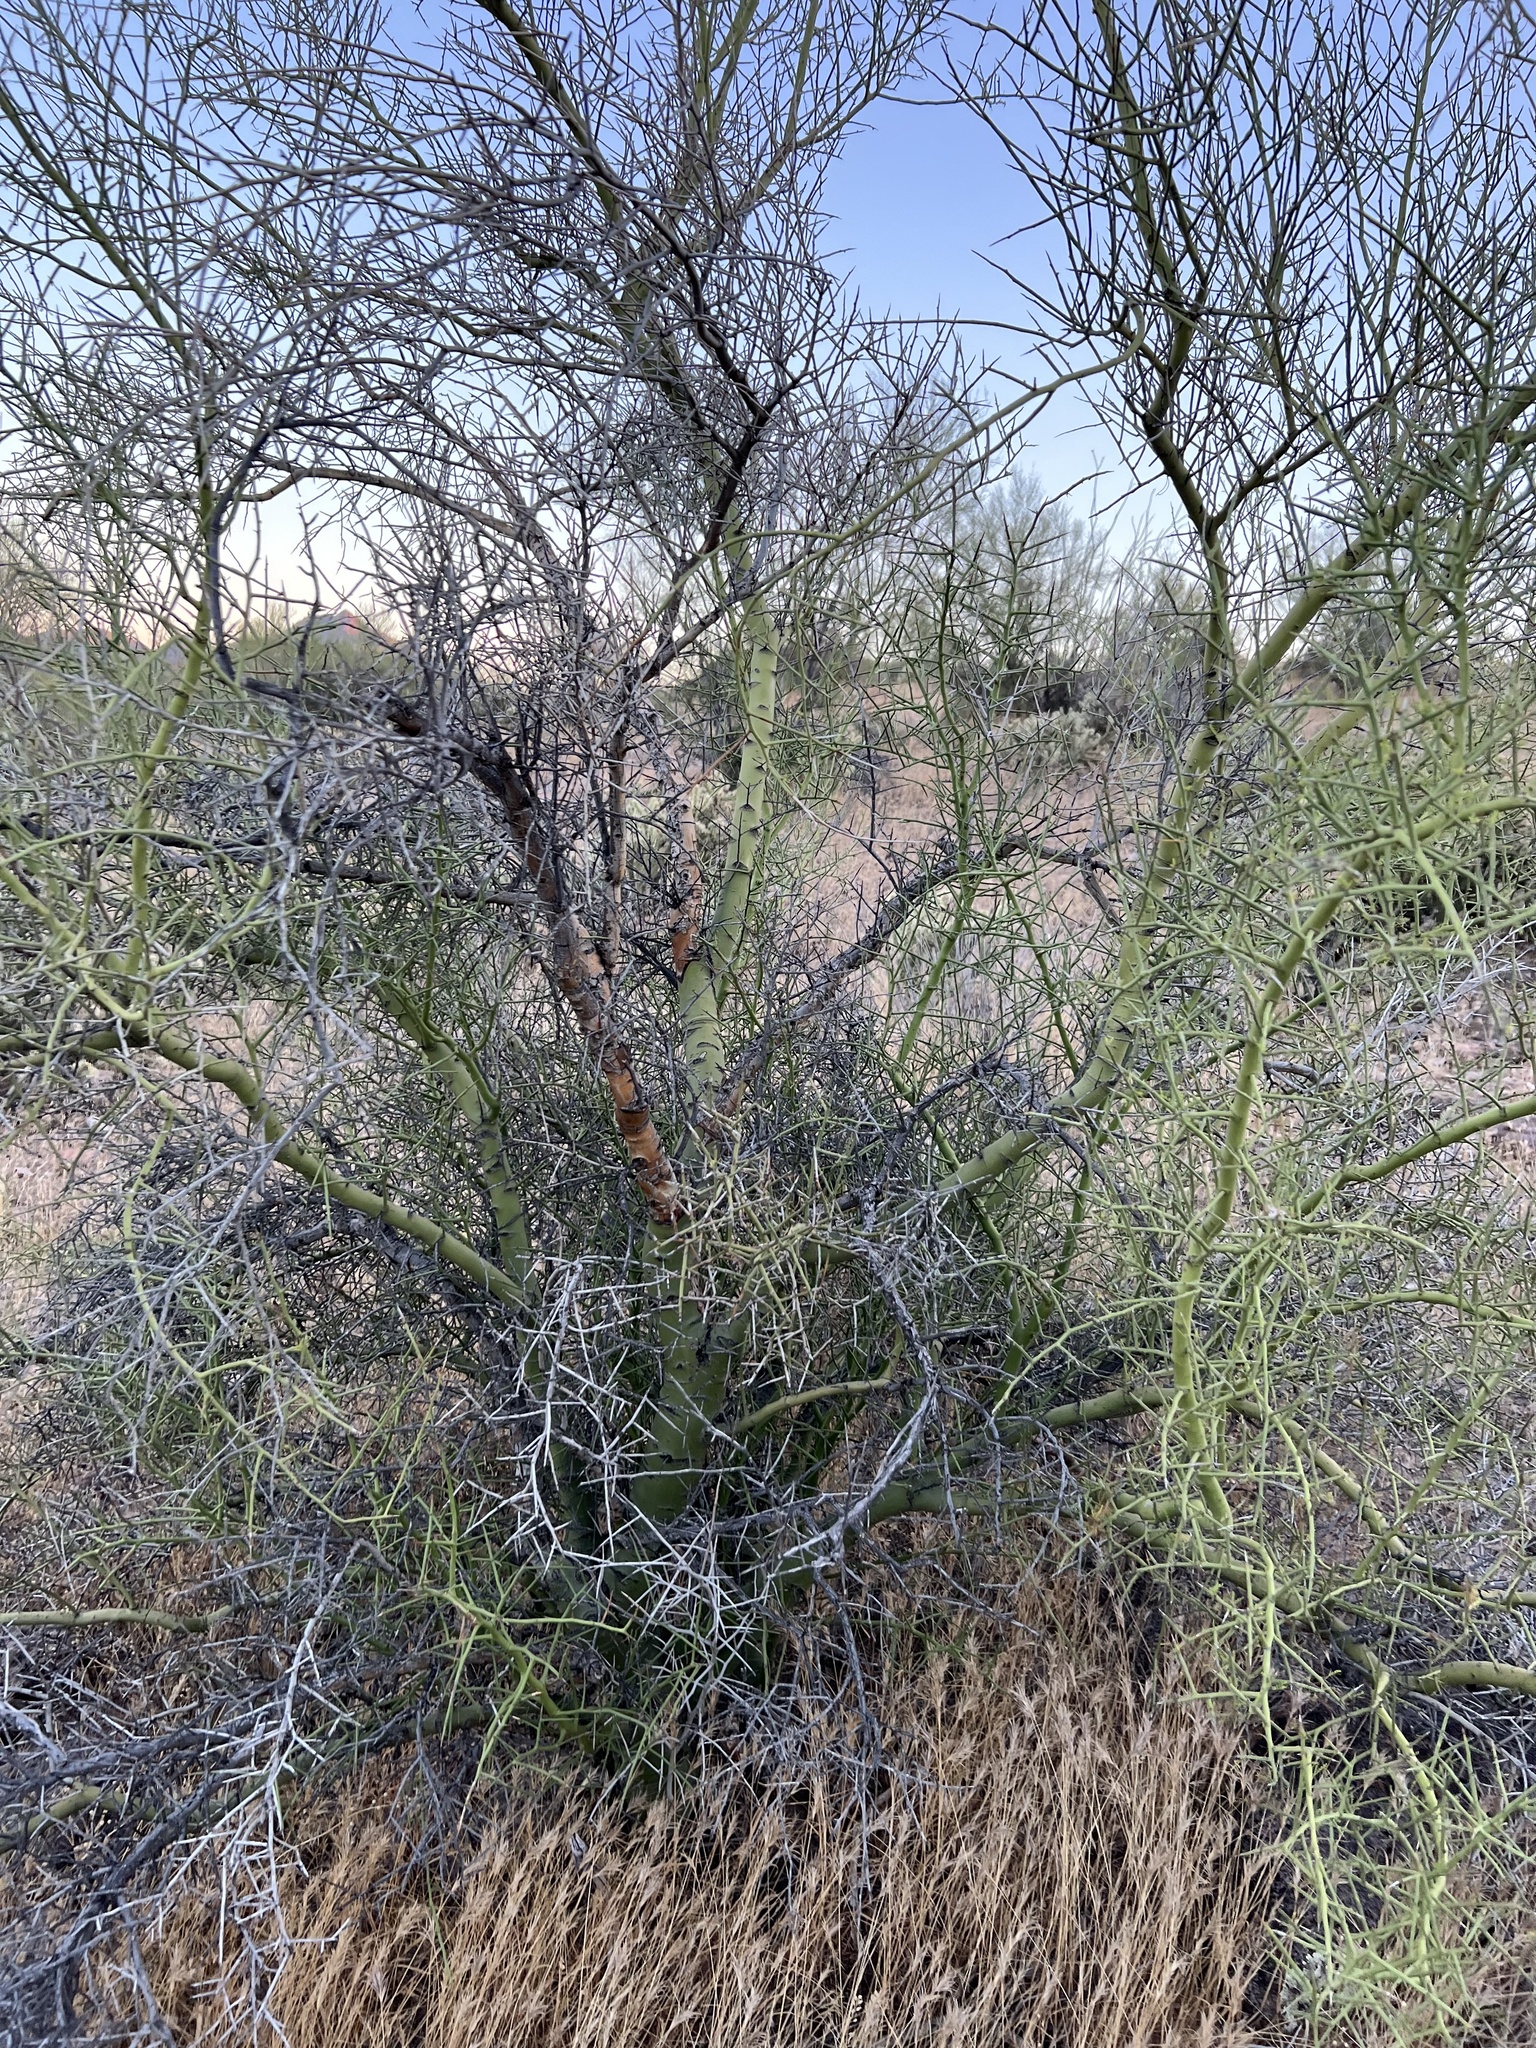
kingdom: Plantae
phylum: Tracheophyta
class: Magnoliopsida
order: Fabales
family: Fabaceae
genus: Parkinsonia
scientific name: Parkinsonia microphylla
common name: Yellow paloverde
